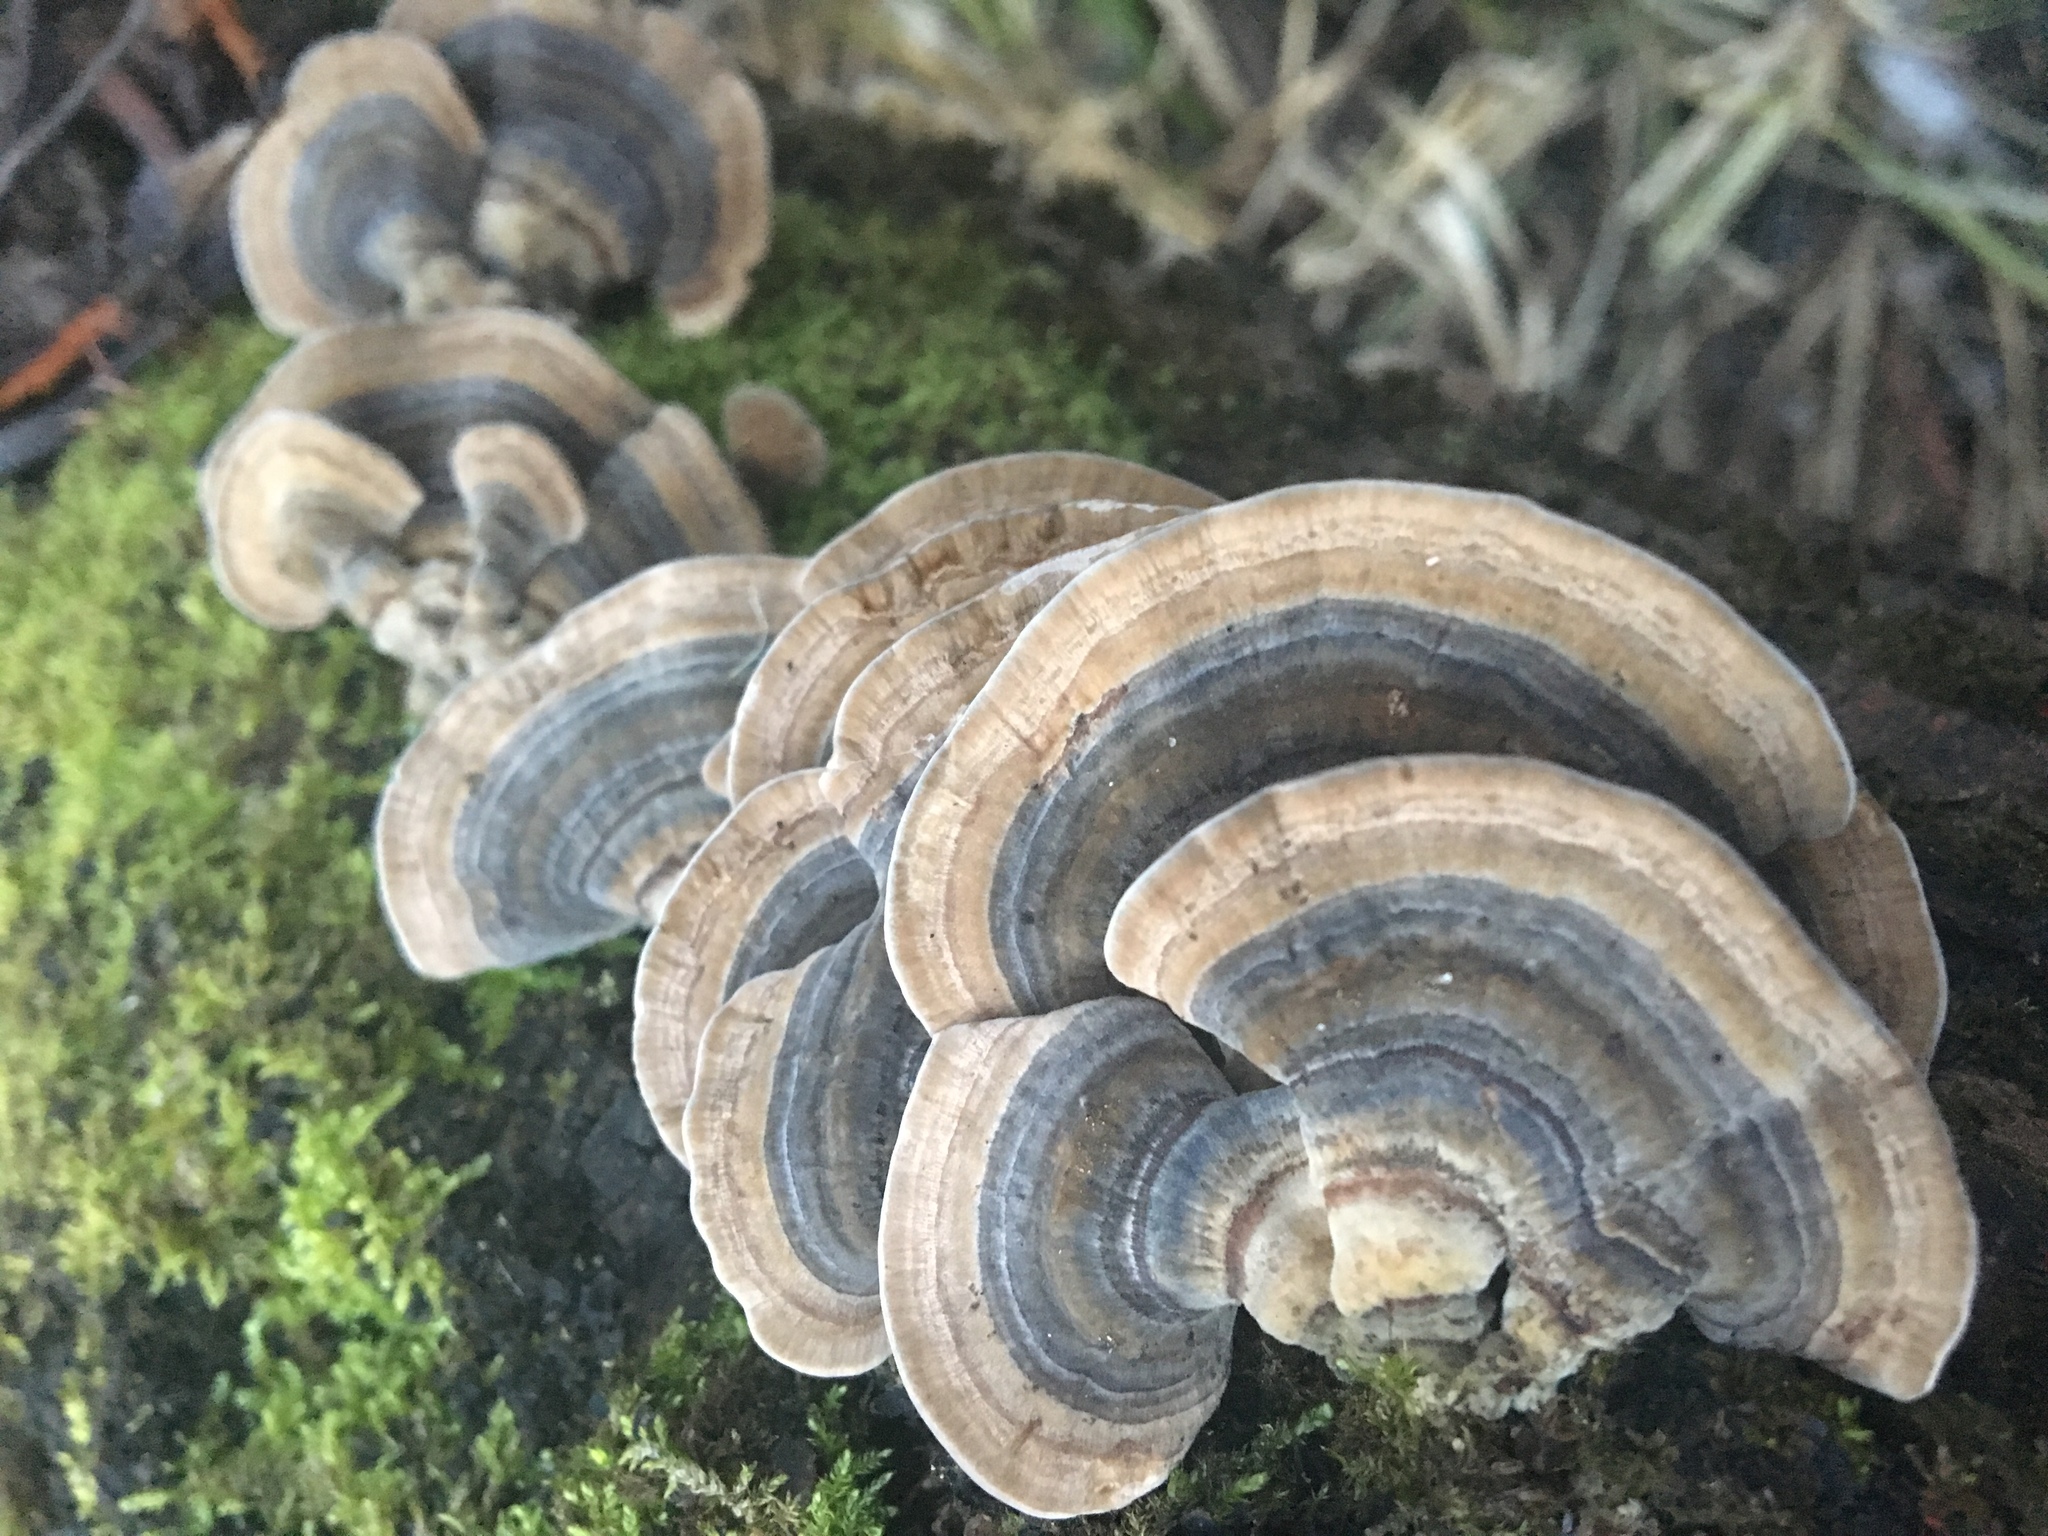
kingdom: Fungi
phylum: Basidiomycota
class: Agaricomycetes
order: Polyporales
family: Polyporaceae
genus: Trametes
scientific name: Trametes versicolor
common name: Turkeytail
